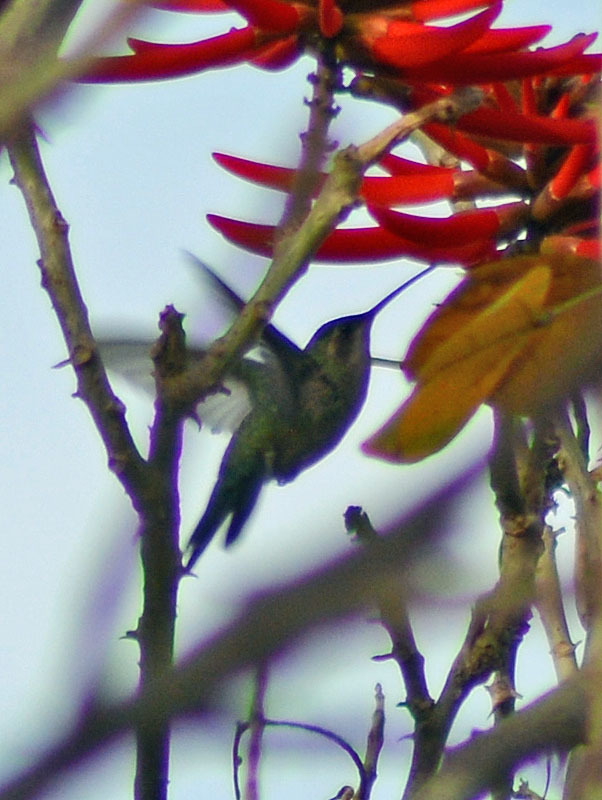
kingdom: Animalia
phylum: Chordata
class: Aves
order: Apodiformes
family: Trochilidae
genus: Cynanthus
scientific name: Cynanthus latirostris
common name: Broad-billed hummingbird
